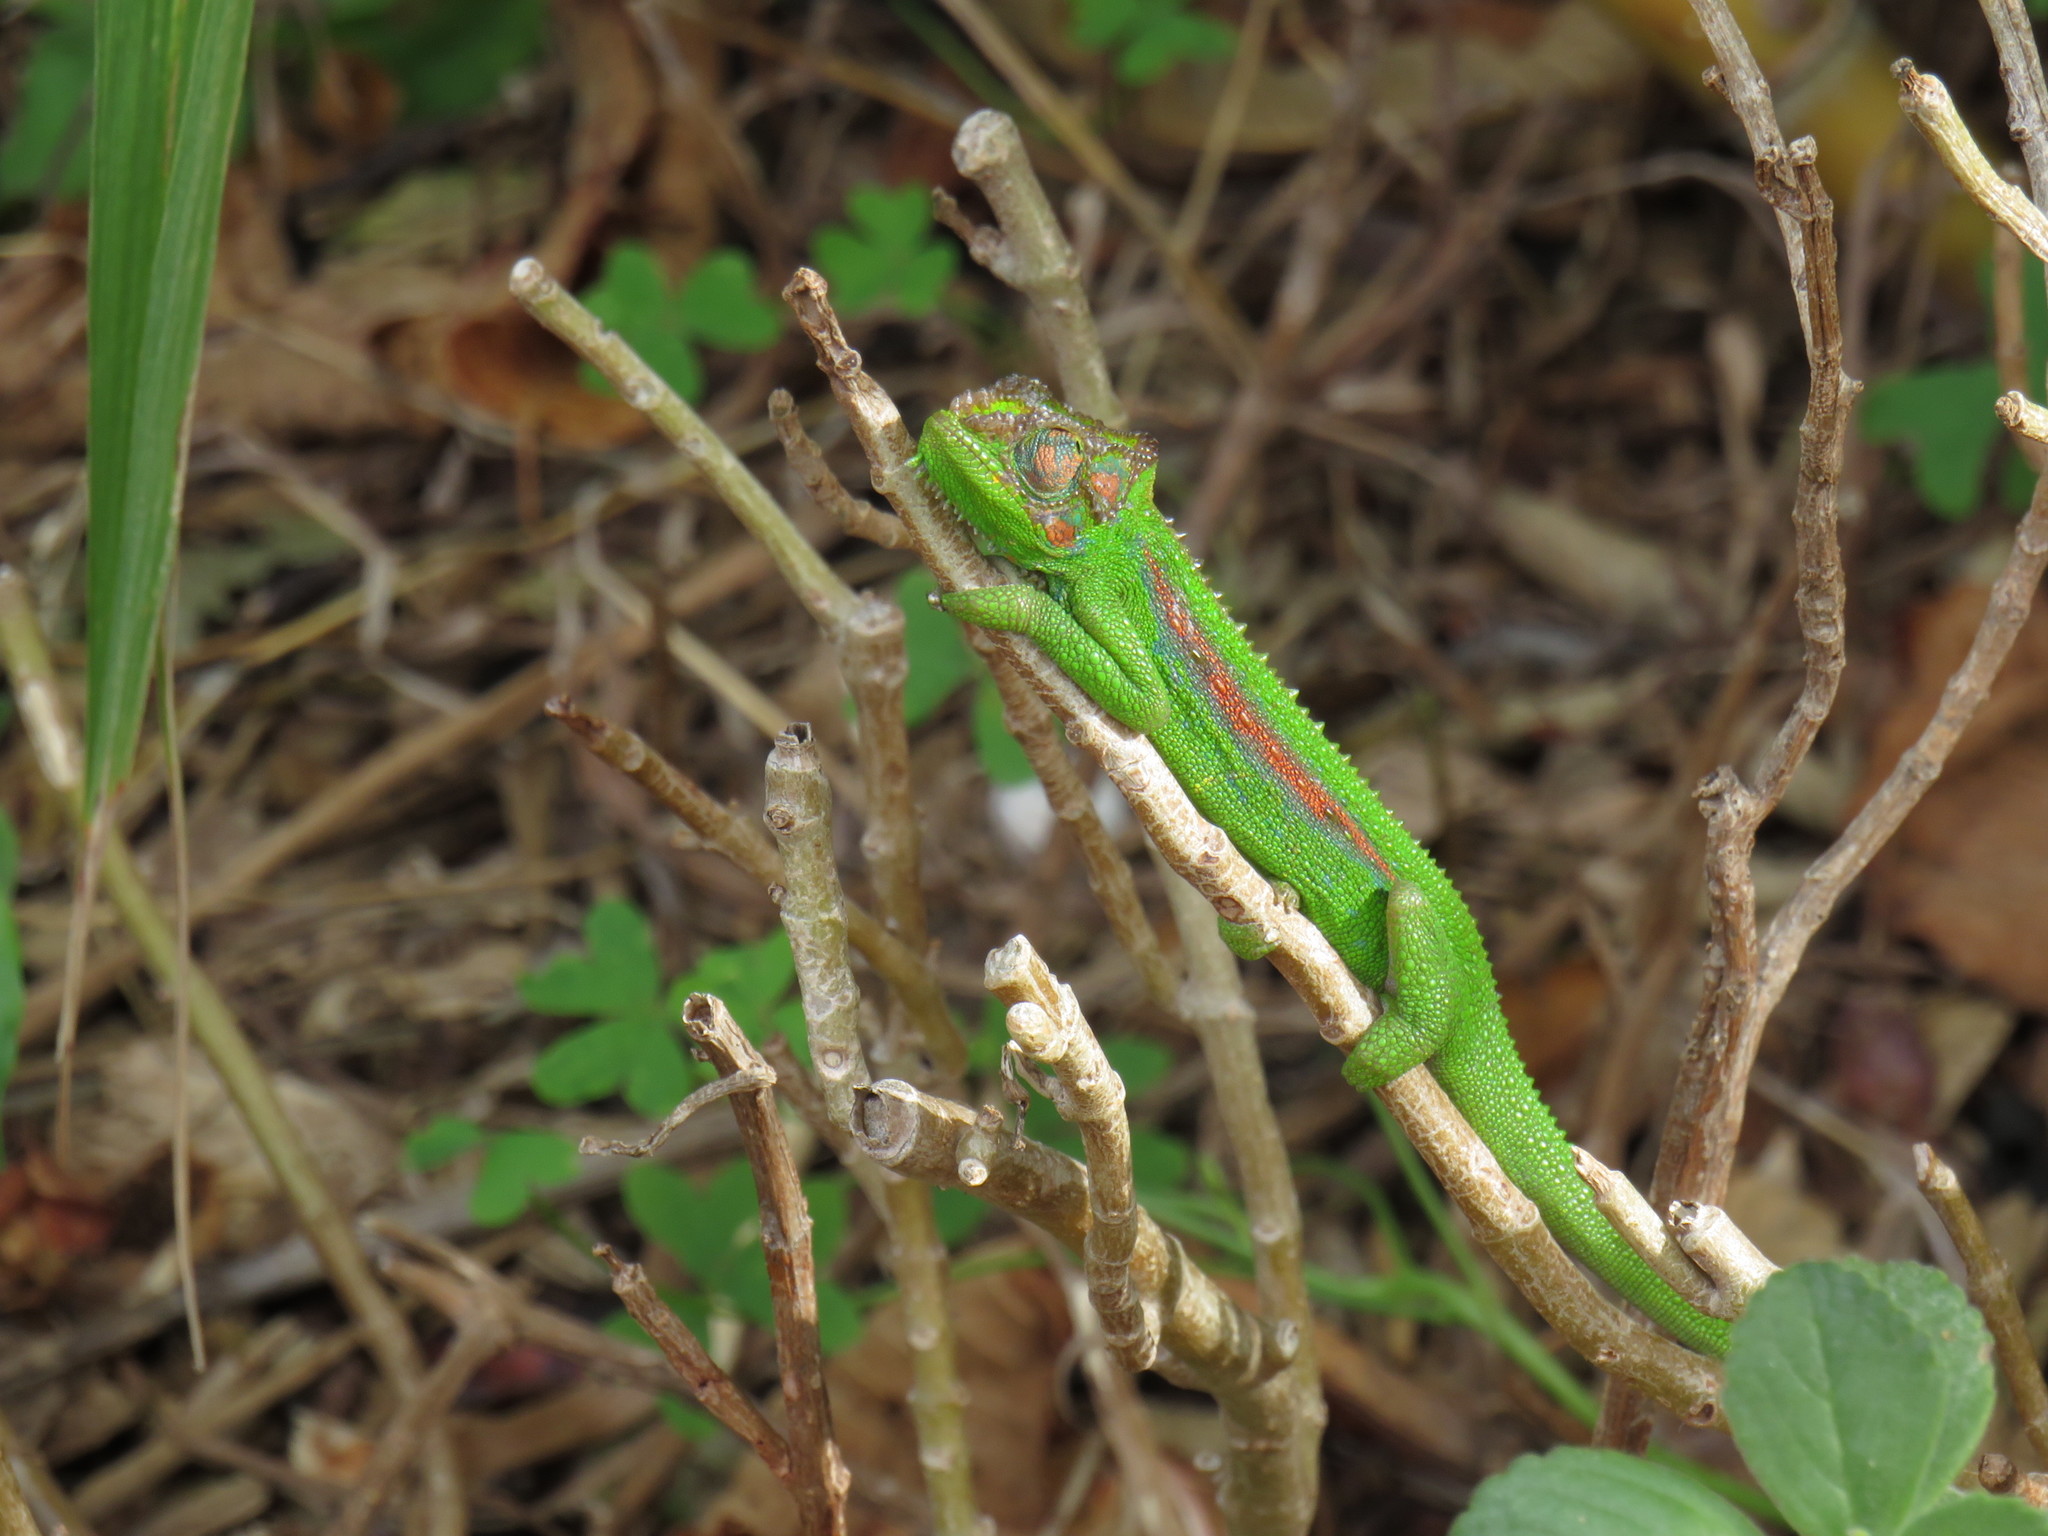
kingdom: Animalia
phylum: Chordata
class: Squamata
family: Chamaeleonidae
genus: Bradypodion
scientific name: Bradypodion pumilum
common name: Cape dwarf chameleon
